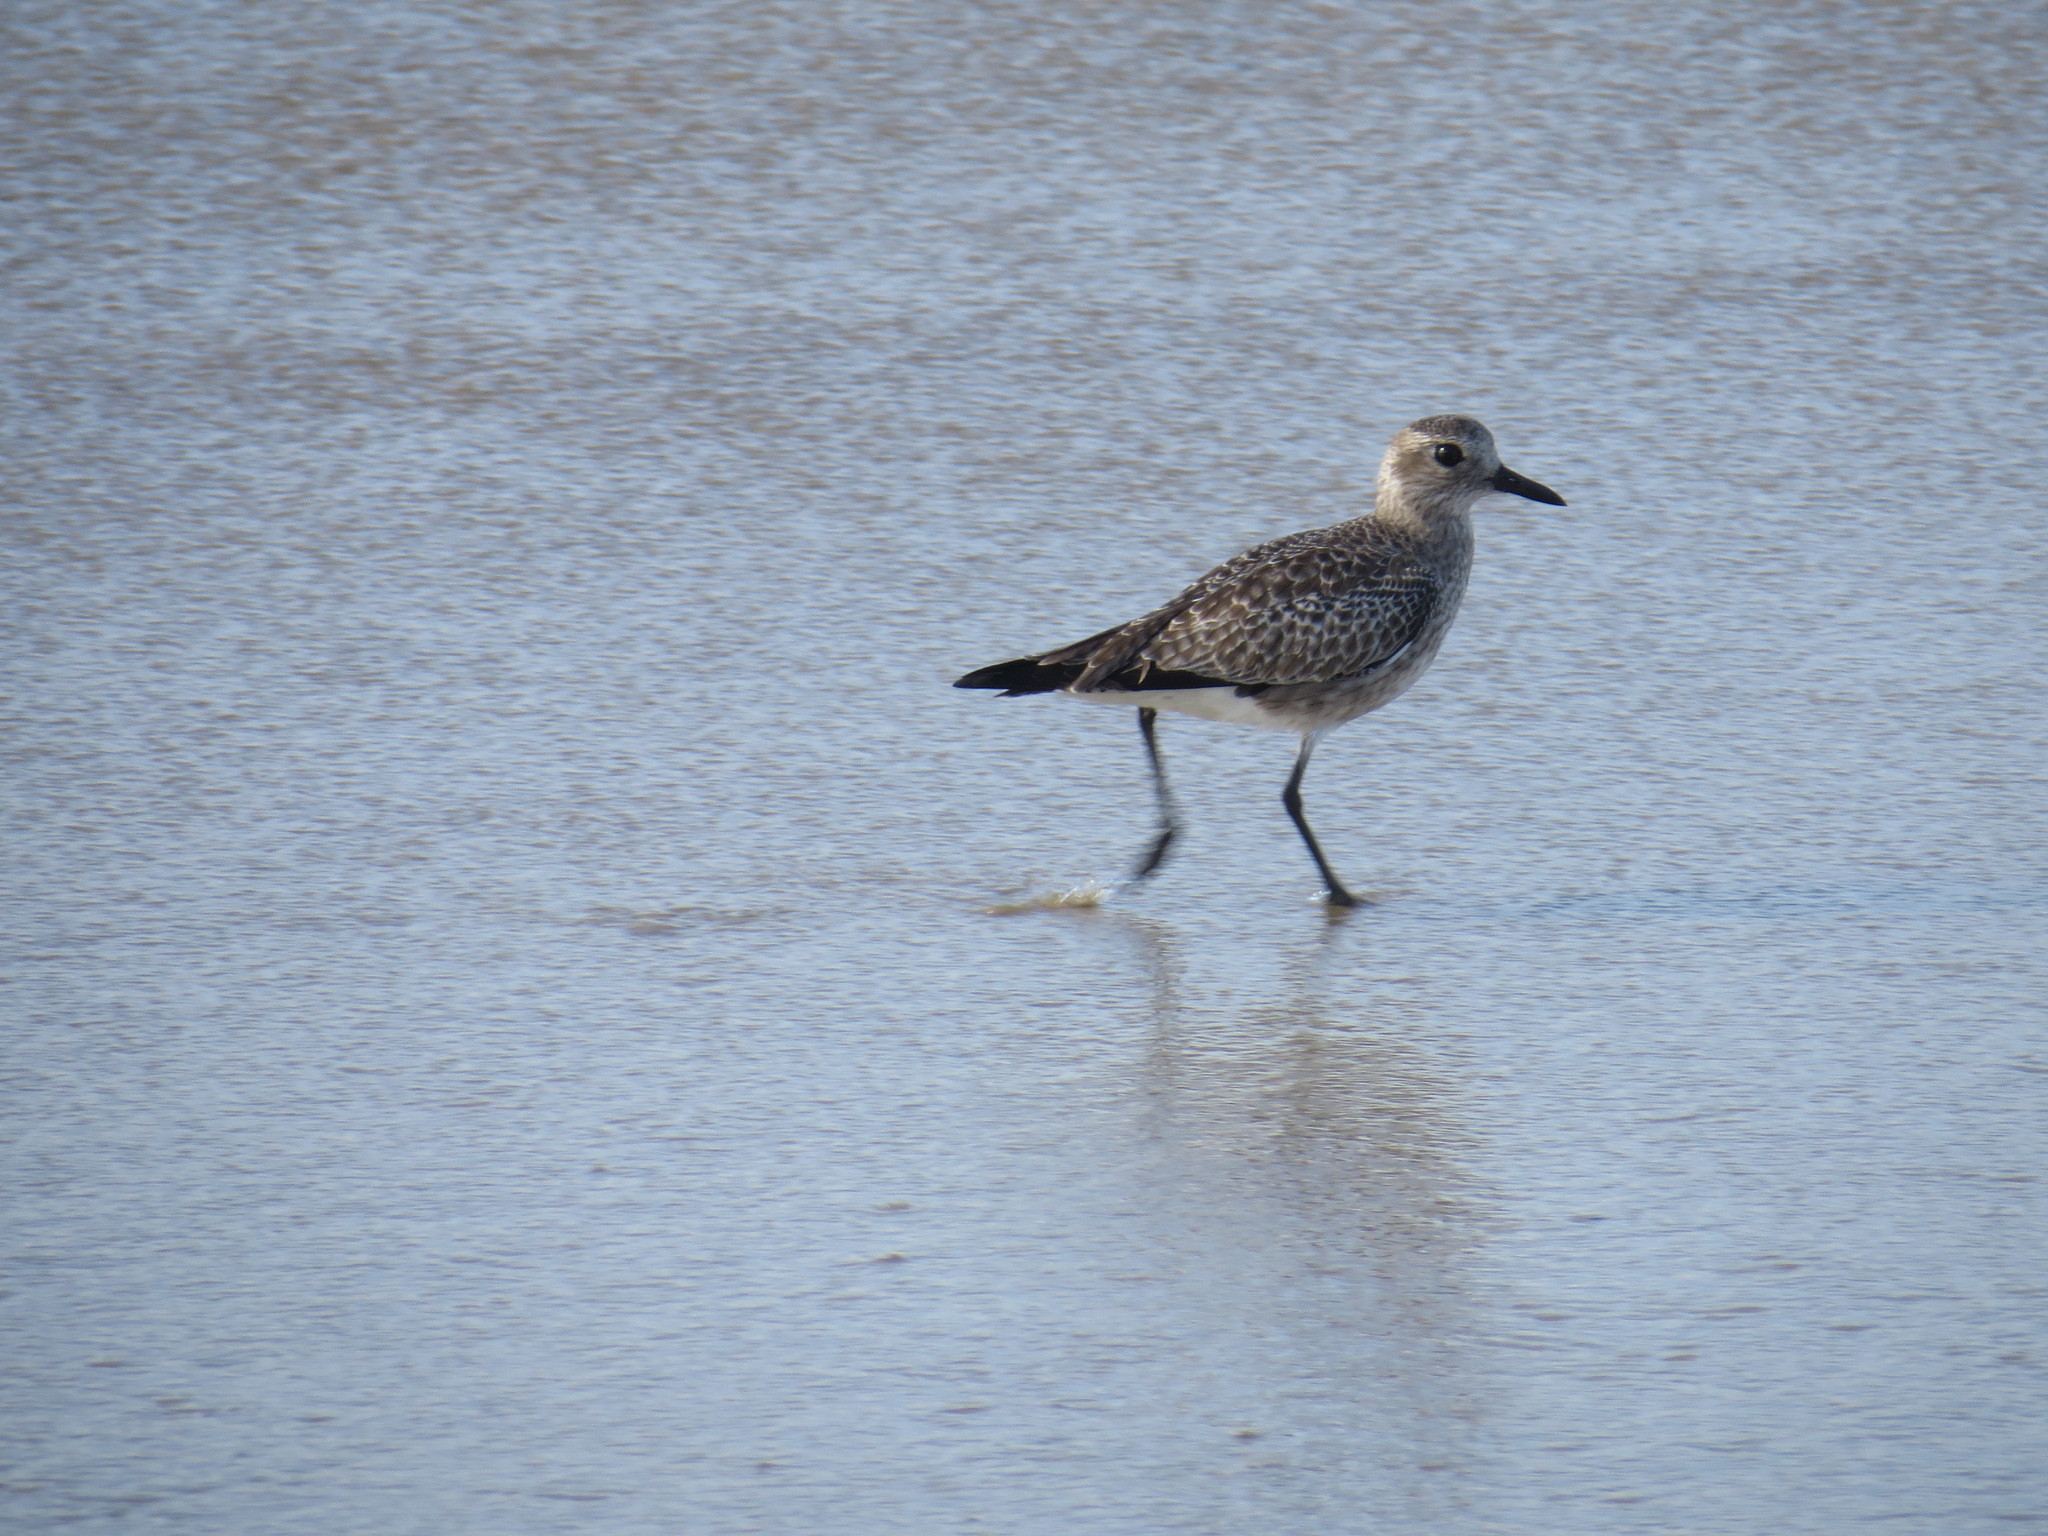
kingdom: Animalia
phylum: Chordata
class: Aves
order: Charadriiformes
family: Charadriidae
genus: Pluvialis
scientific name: Pluvialis squatarola
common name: Grey plover
